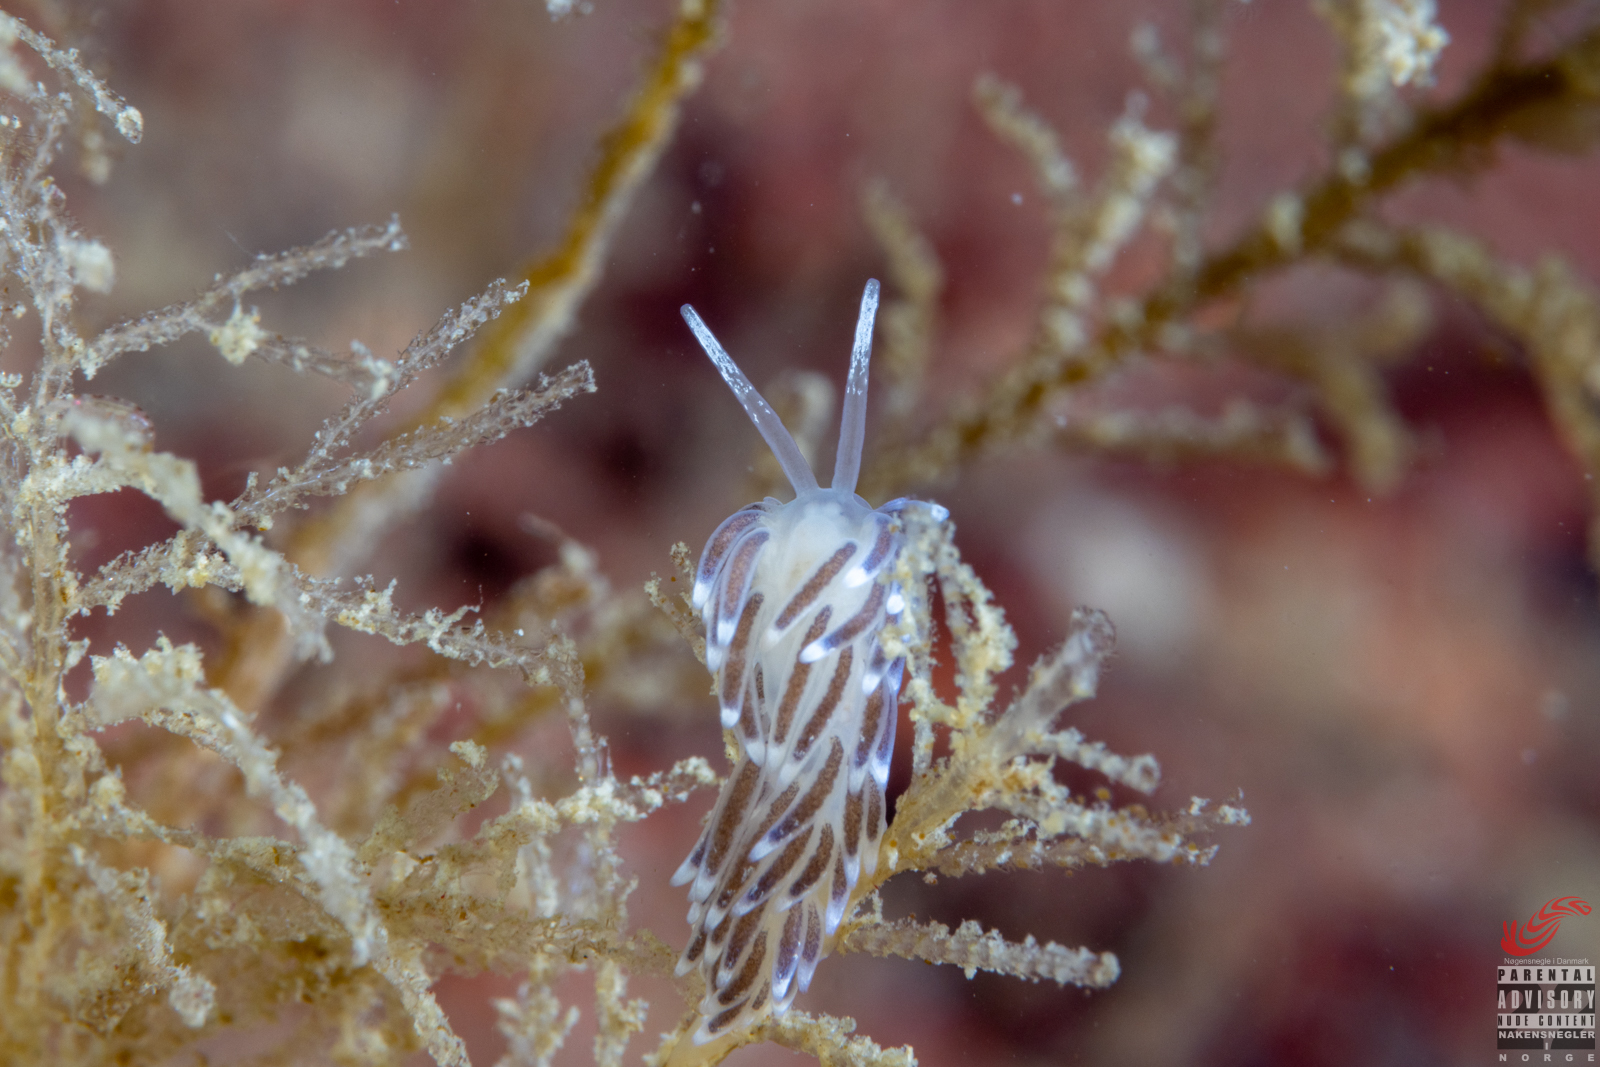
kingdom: Animalia
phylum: Mollusca
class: Gastropoda
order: Nudibranchia
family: Cuthonellidae
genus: Cuthonella
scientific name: Cuthonella concinna
